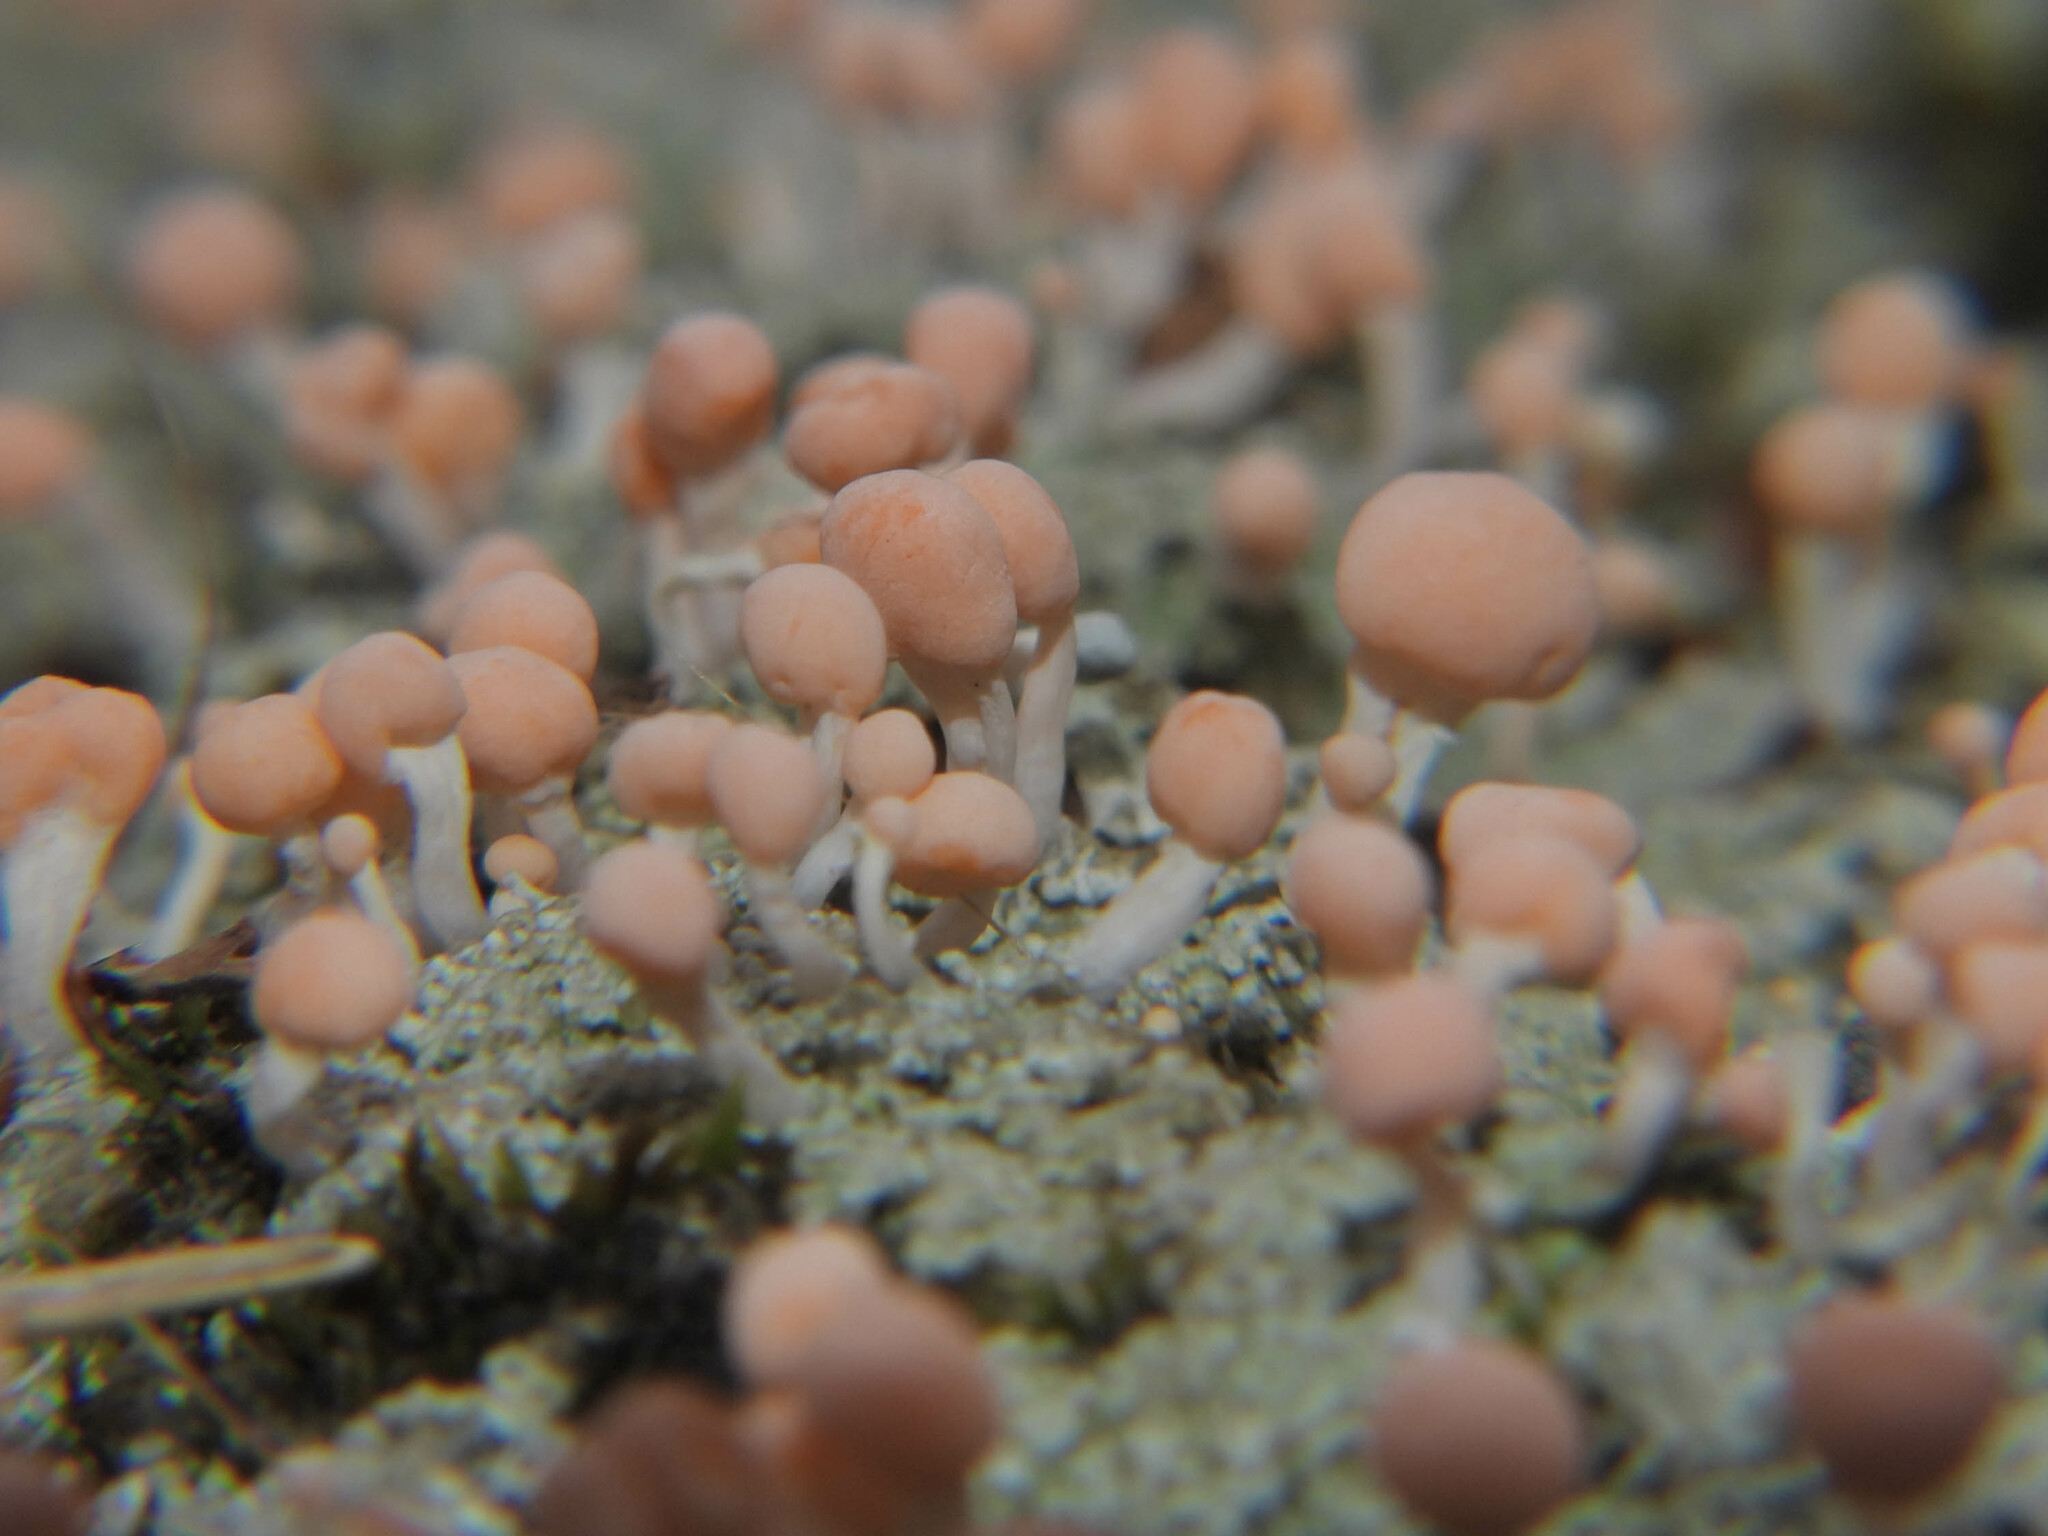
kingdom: Fungi
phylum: Ascomycota
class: Lecanoromycetes
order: Pertusariales
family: Icmadophilaceae
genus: Dibaeis
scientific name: Dibaeis baeomyces
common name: Pink earth lichen
